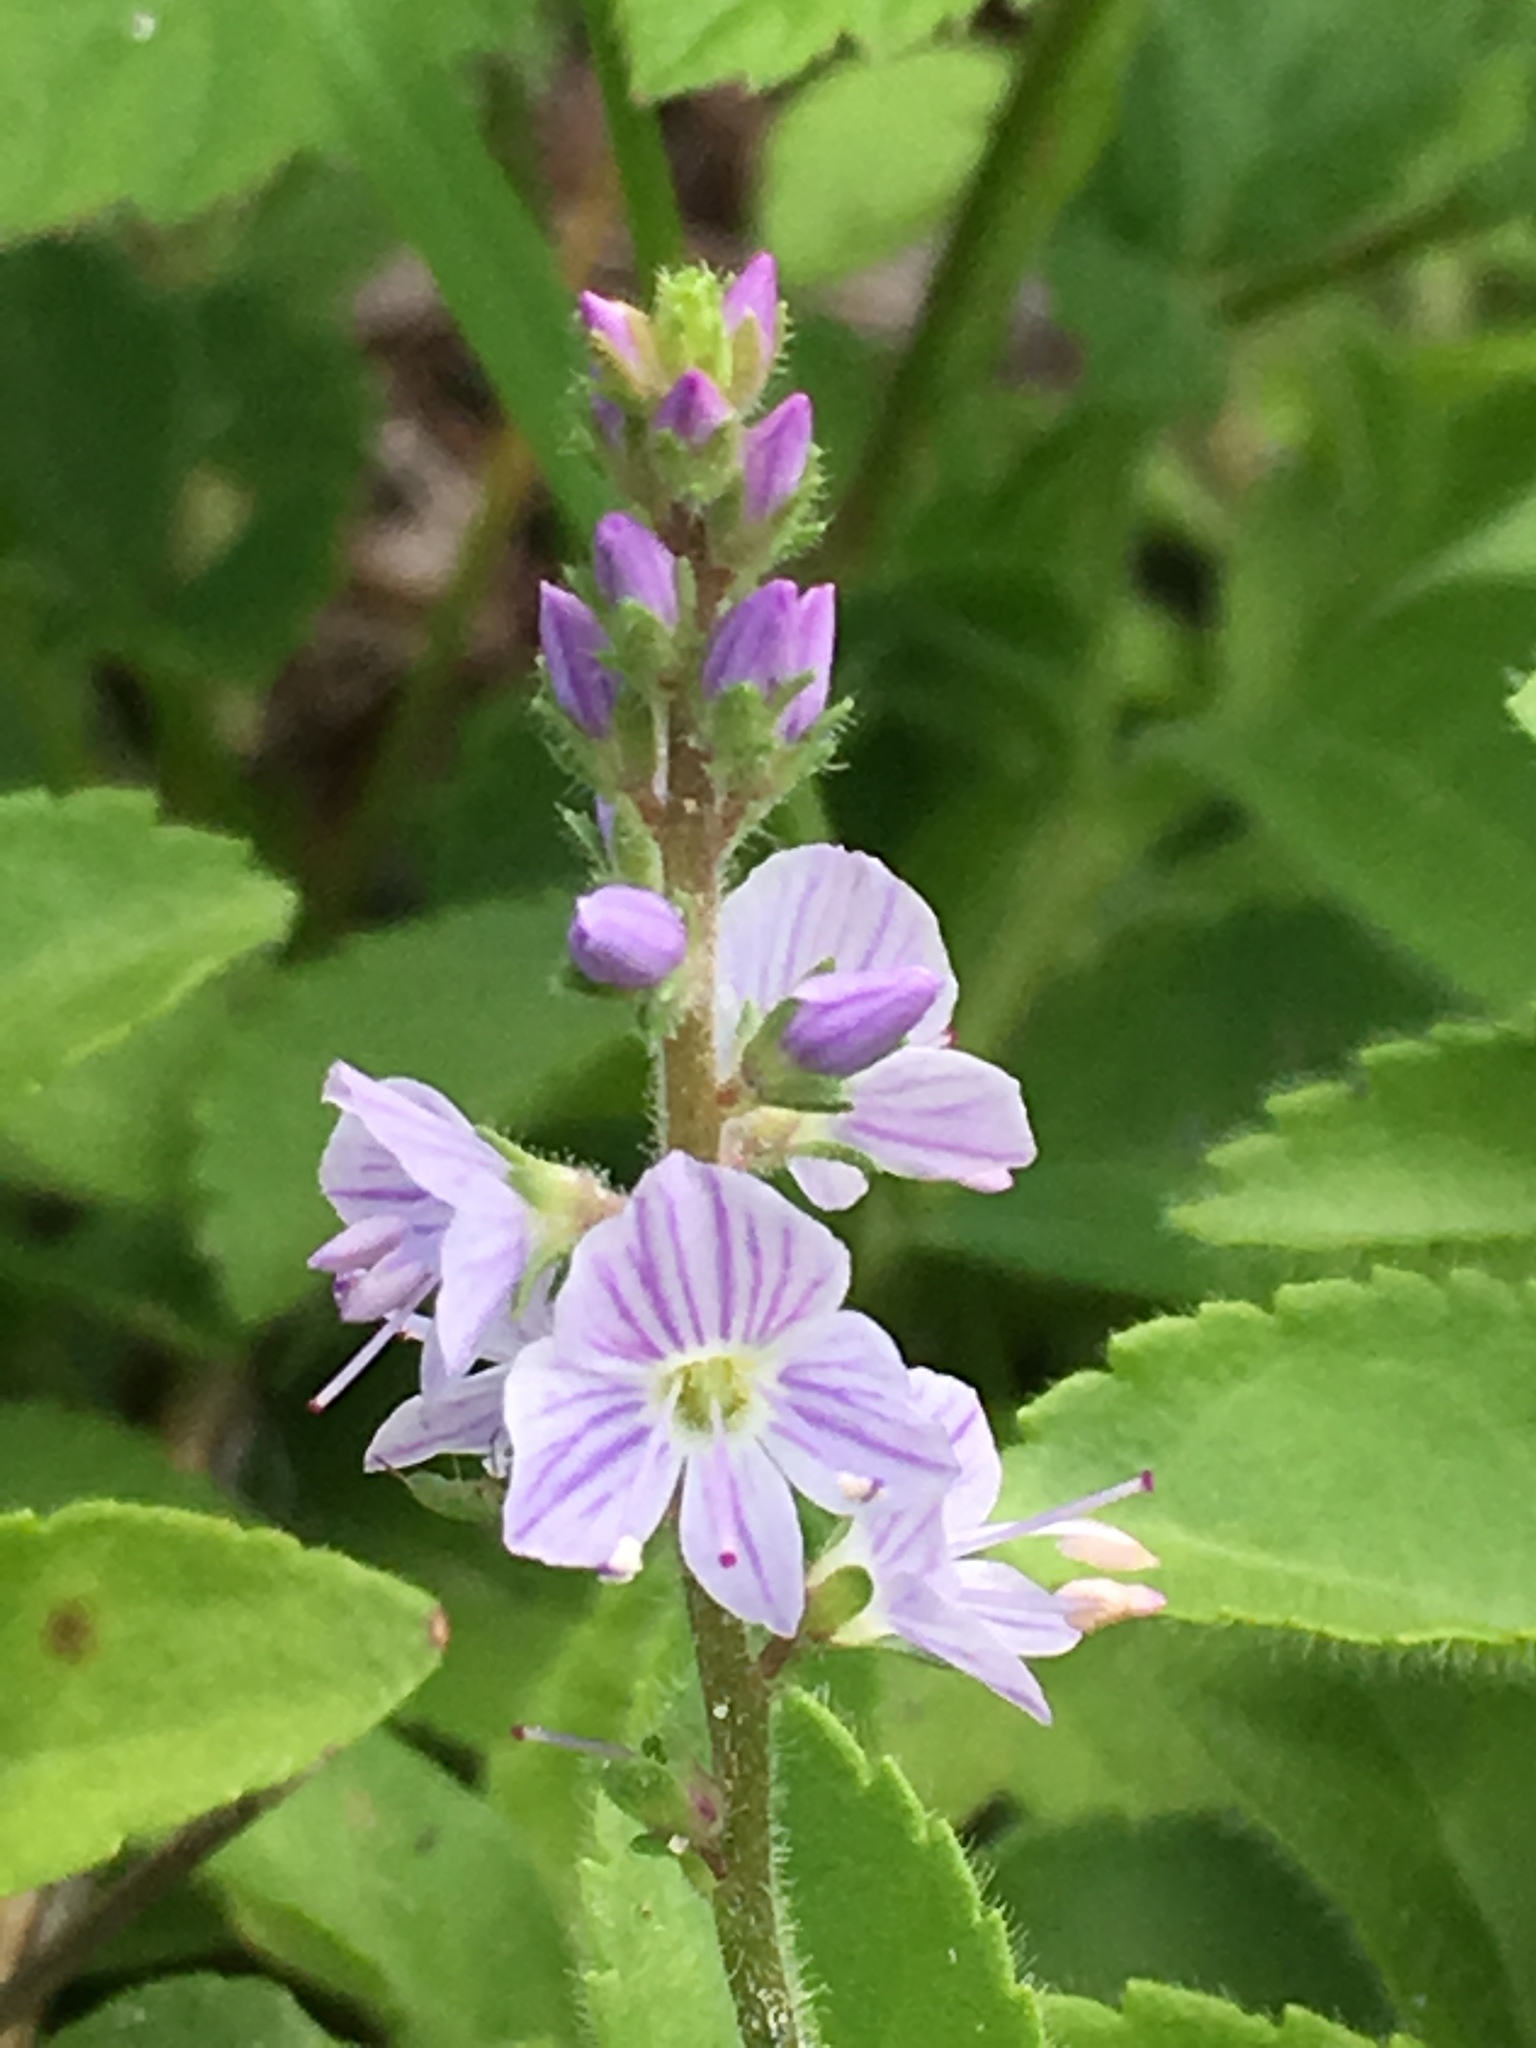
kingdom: Plantae
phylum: Tracheophyta
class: Magnoliopsida
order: Lamiales
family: Plantaginaceae
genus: Veronica
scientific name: Veronica officinalis
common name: Common speedwell
